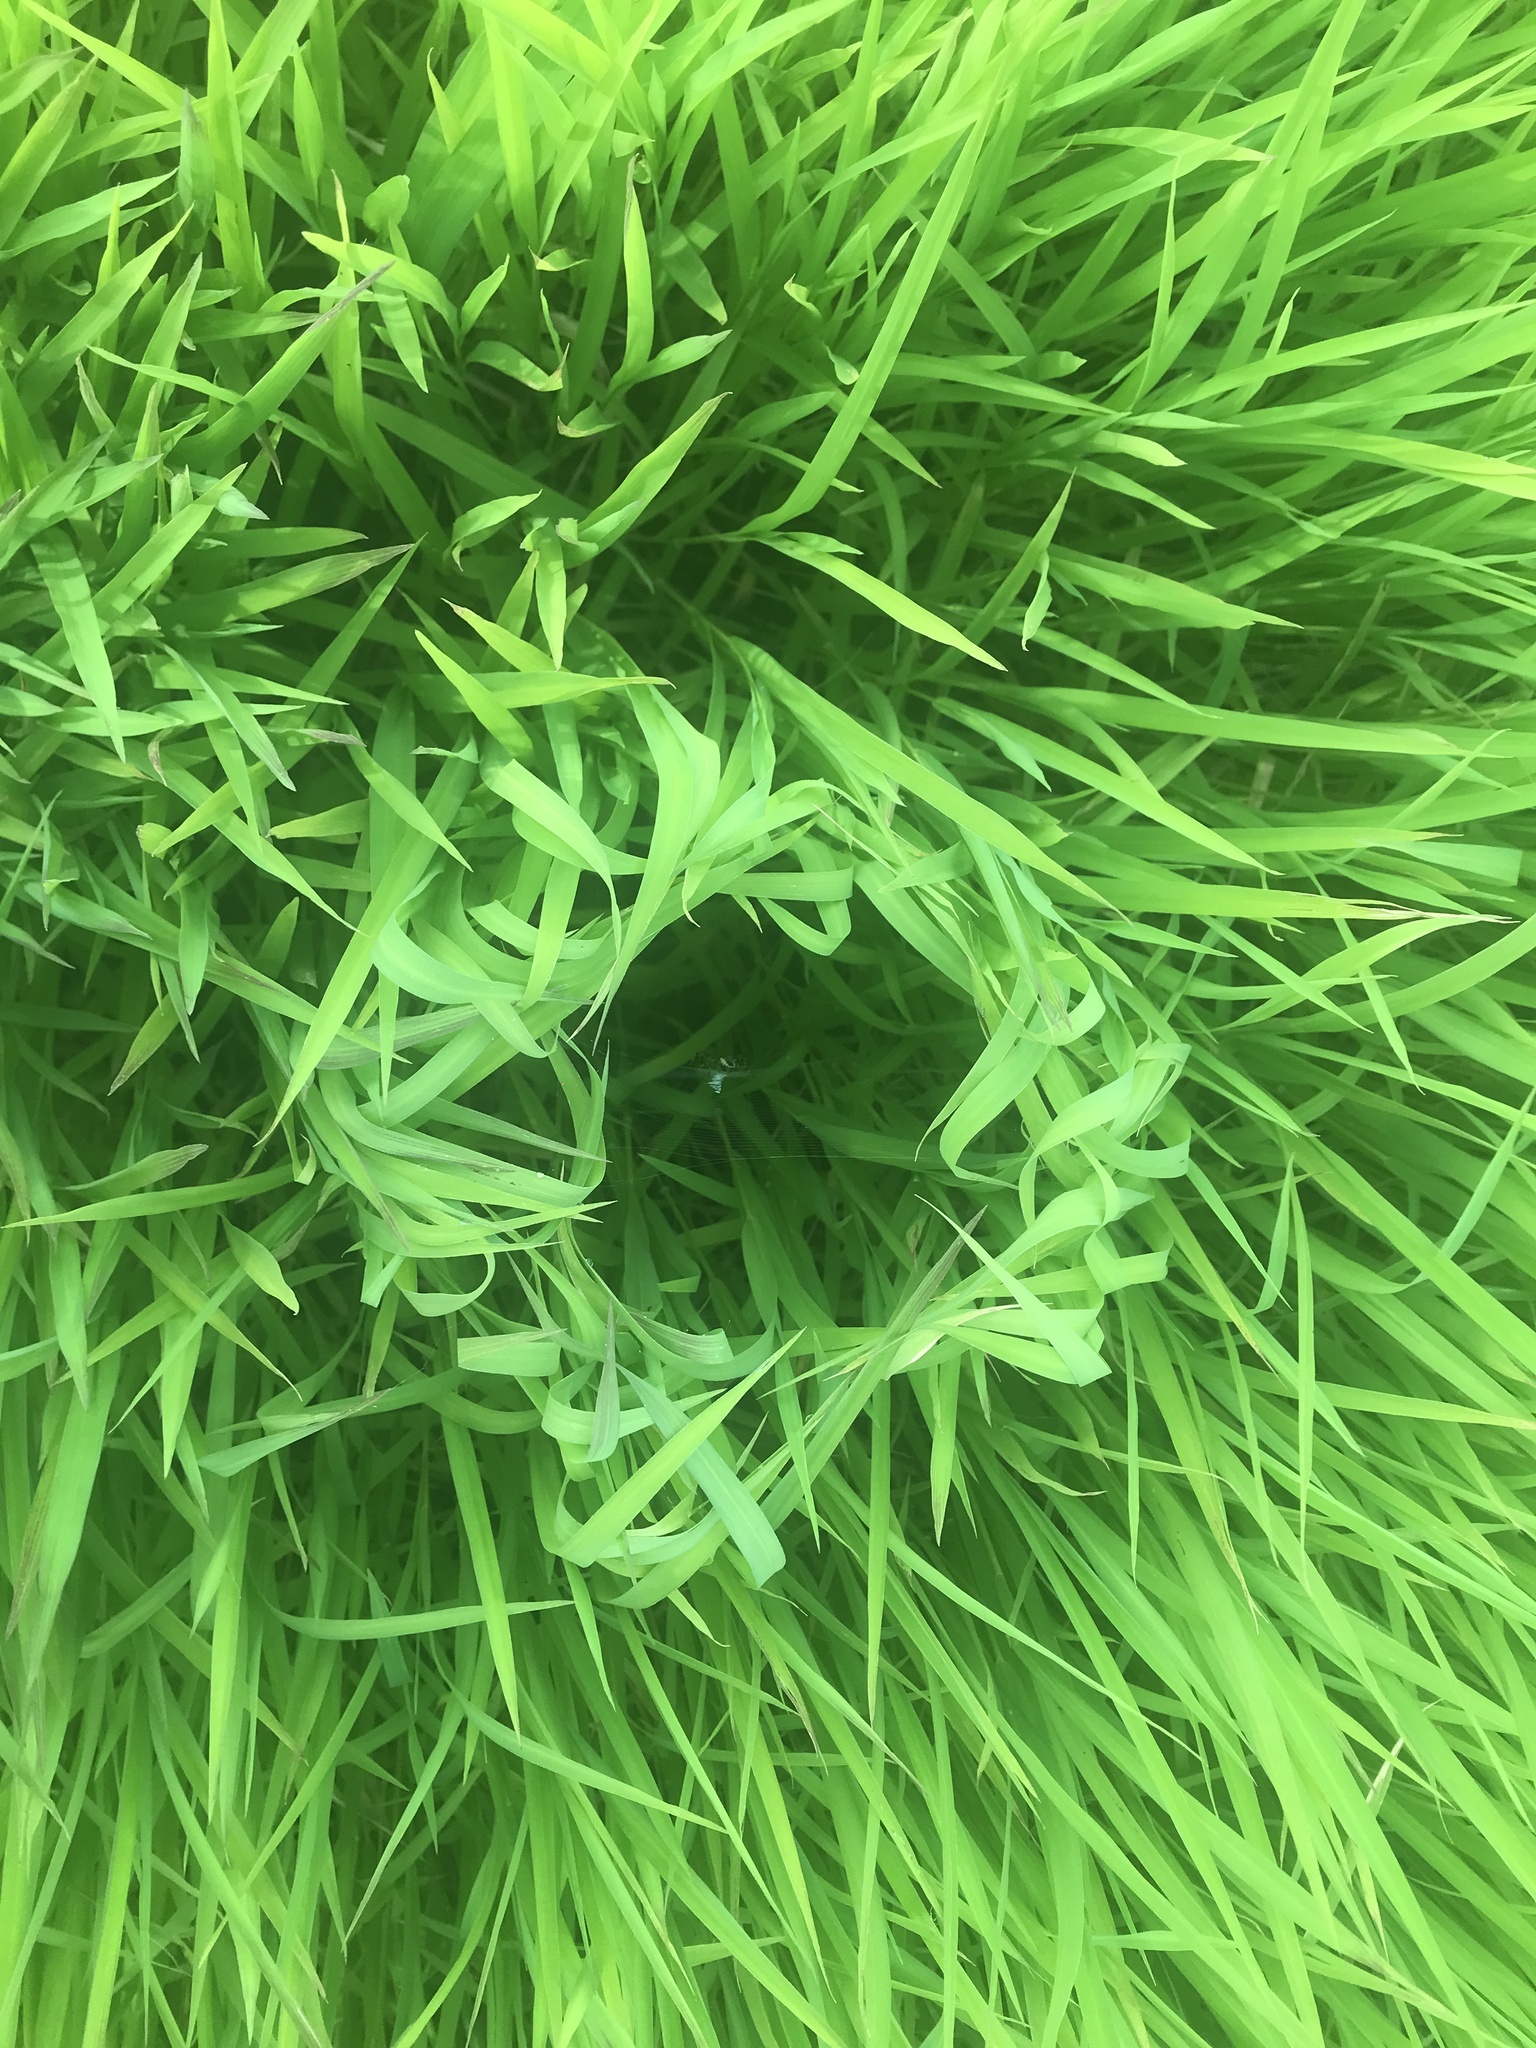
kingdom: Animalia
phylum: Arthropoda
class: Arachnida
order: Araneae
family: Araneidae
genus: Argiope
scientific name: Argiope aurantia
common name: Orb weavers
